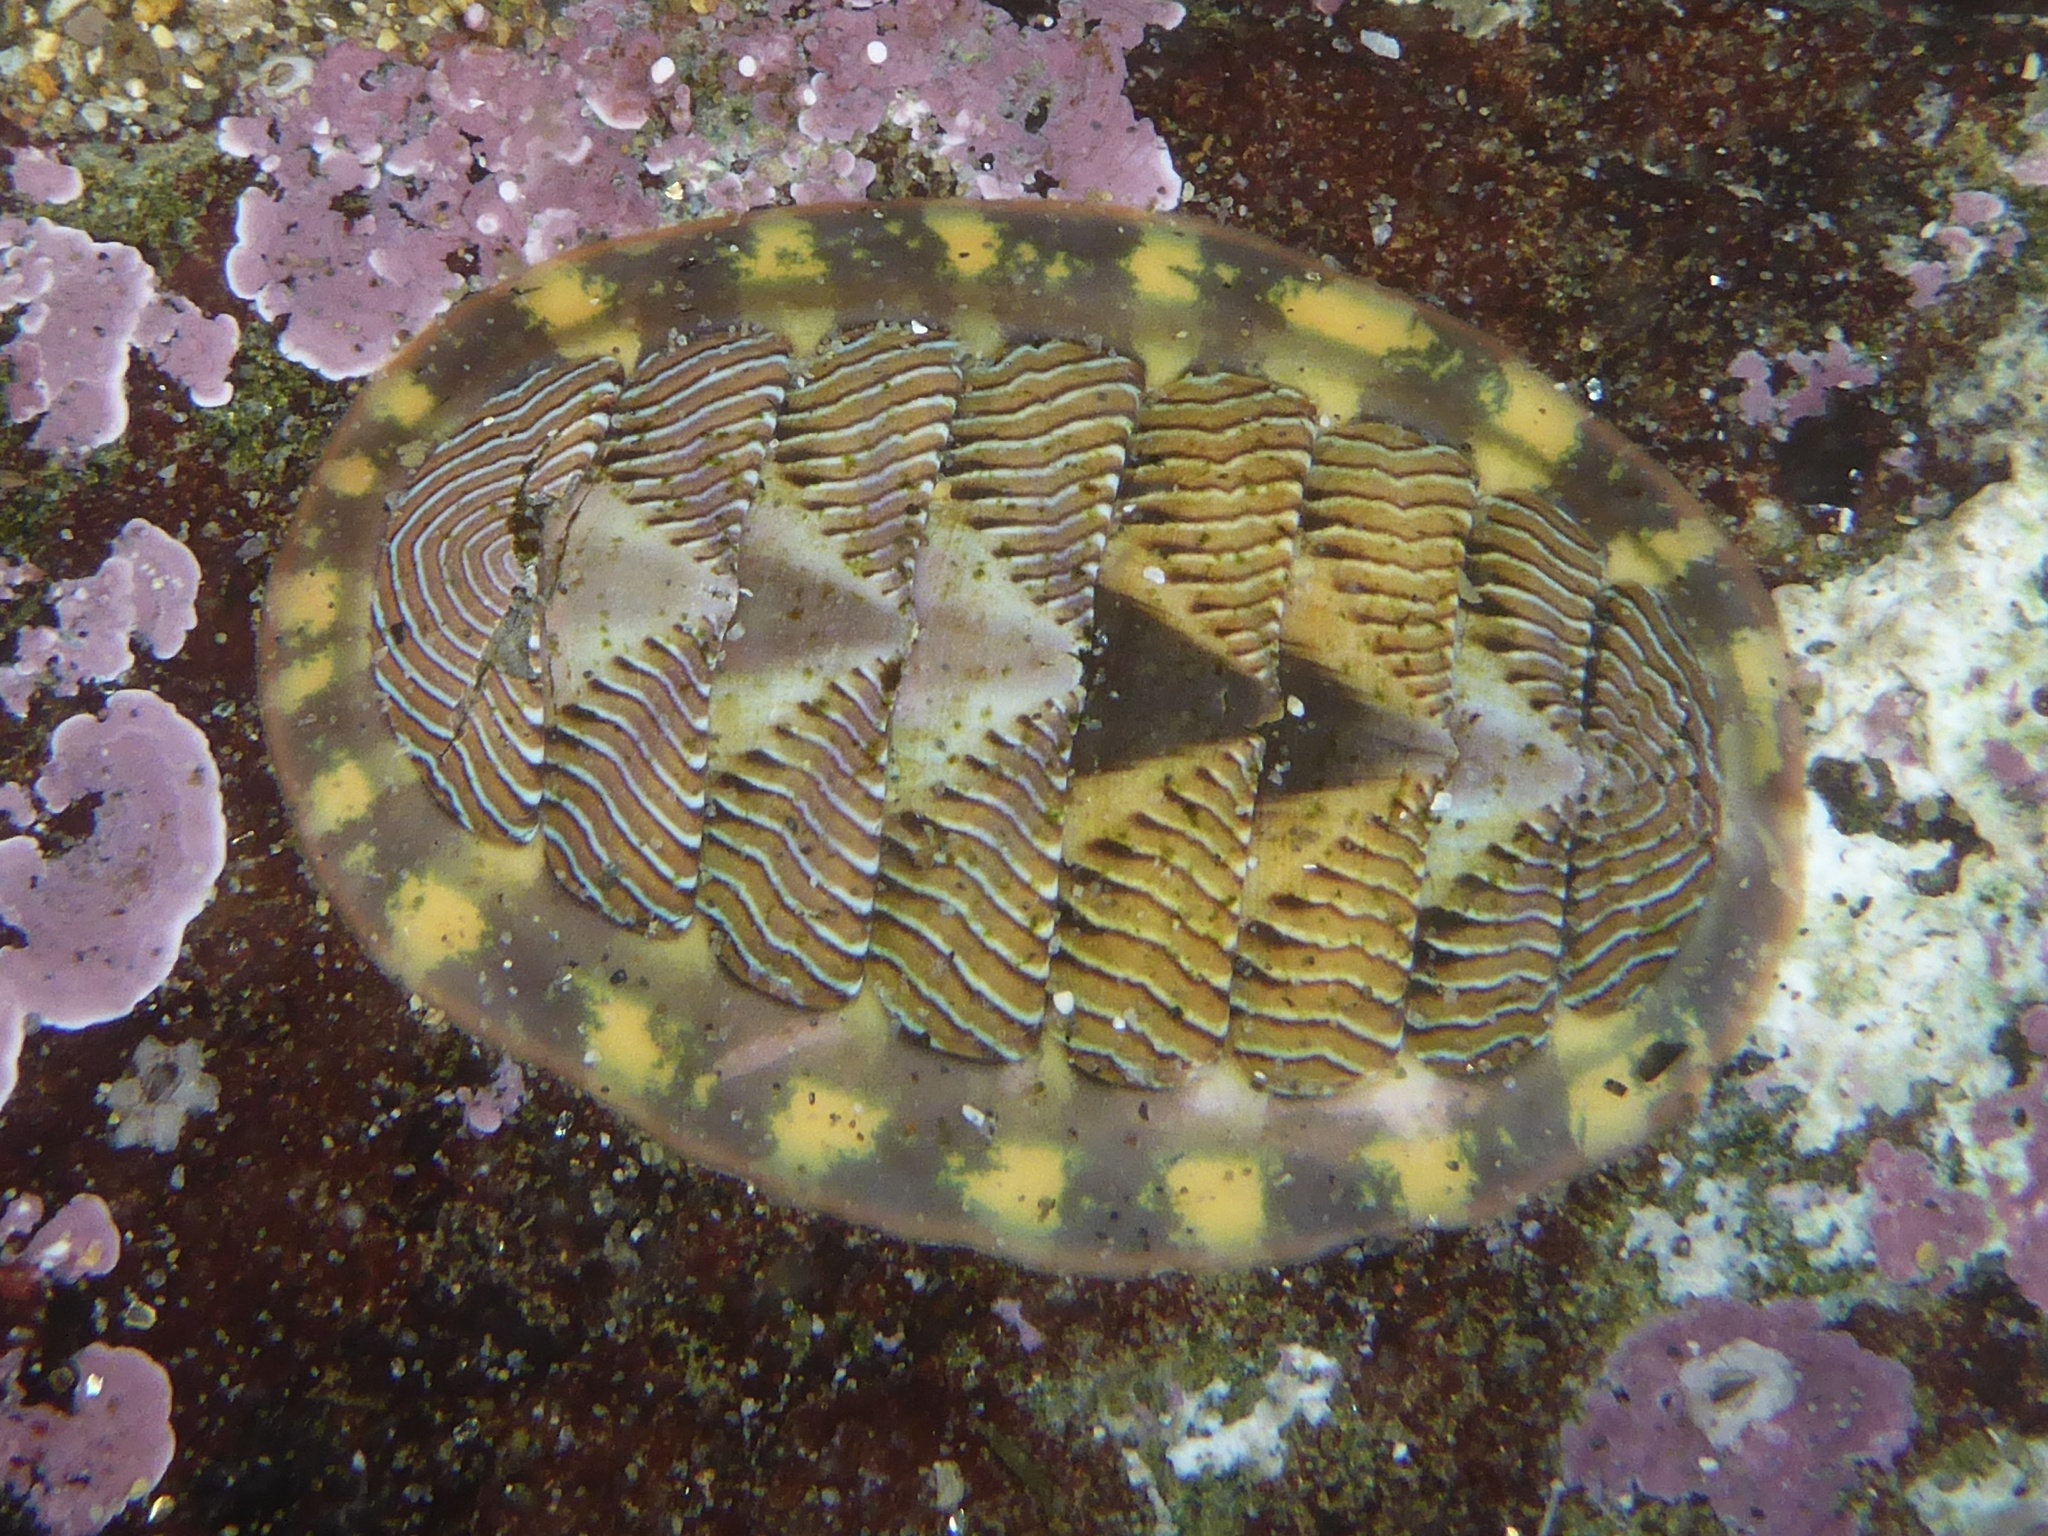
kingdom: Animalia
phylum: Mollusca
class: Polyplacophora
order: Chitonida
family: Tonicellidae
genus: Tonicella
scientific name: Tonicella lineata
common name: Lined chiton
